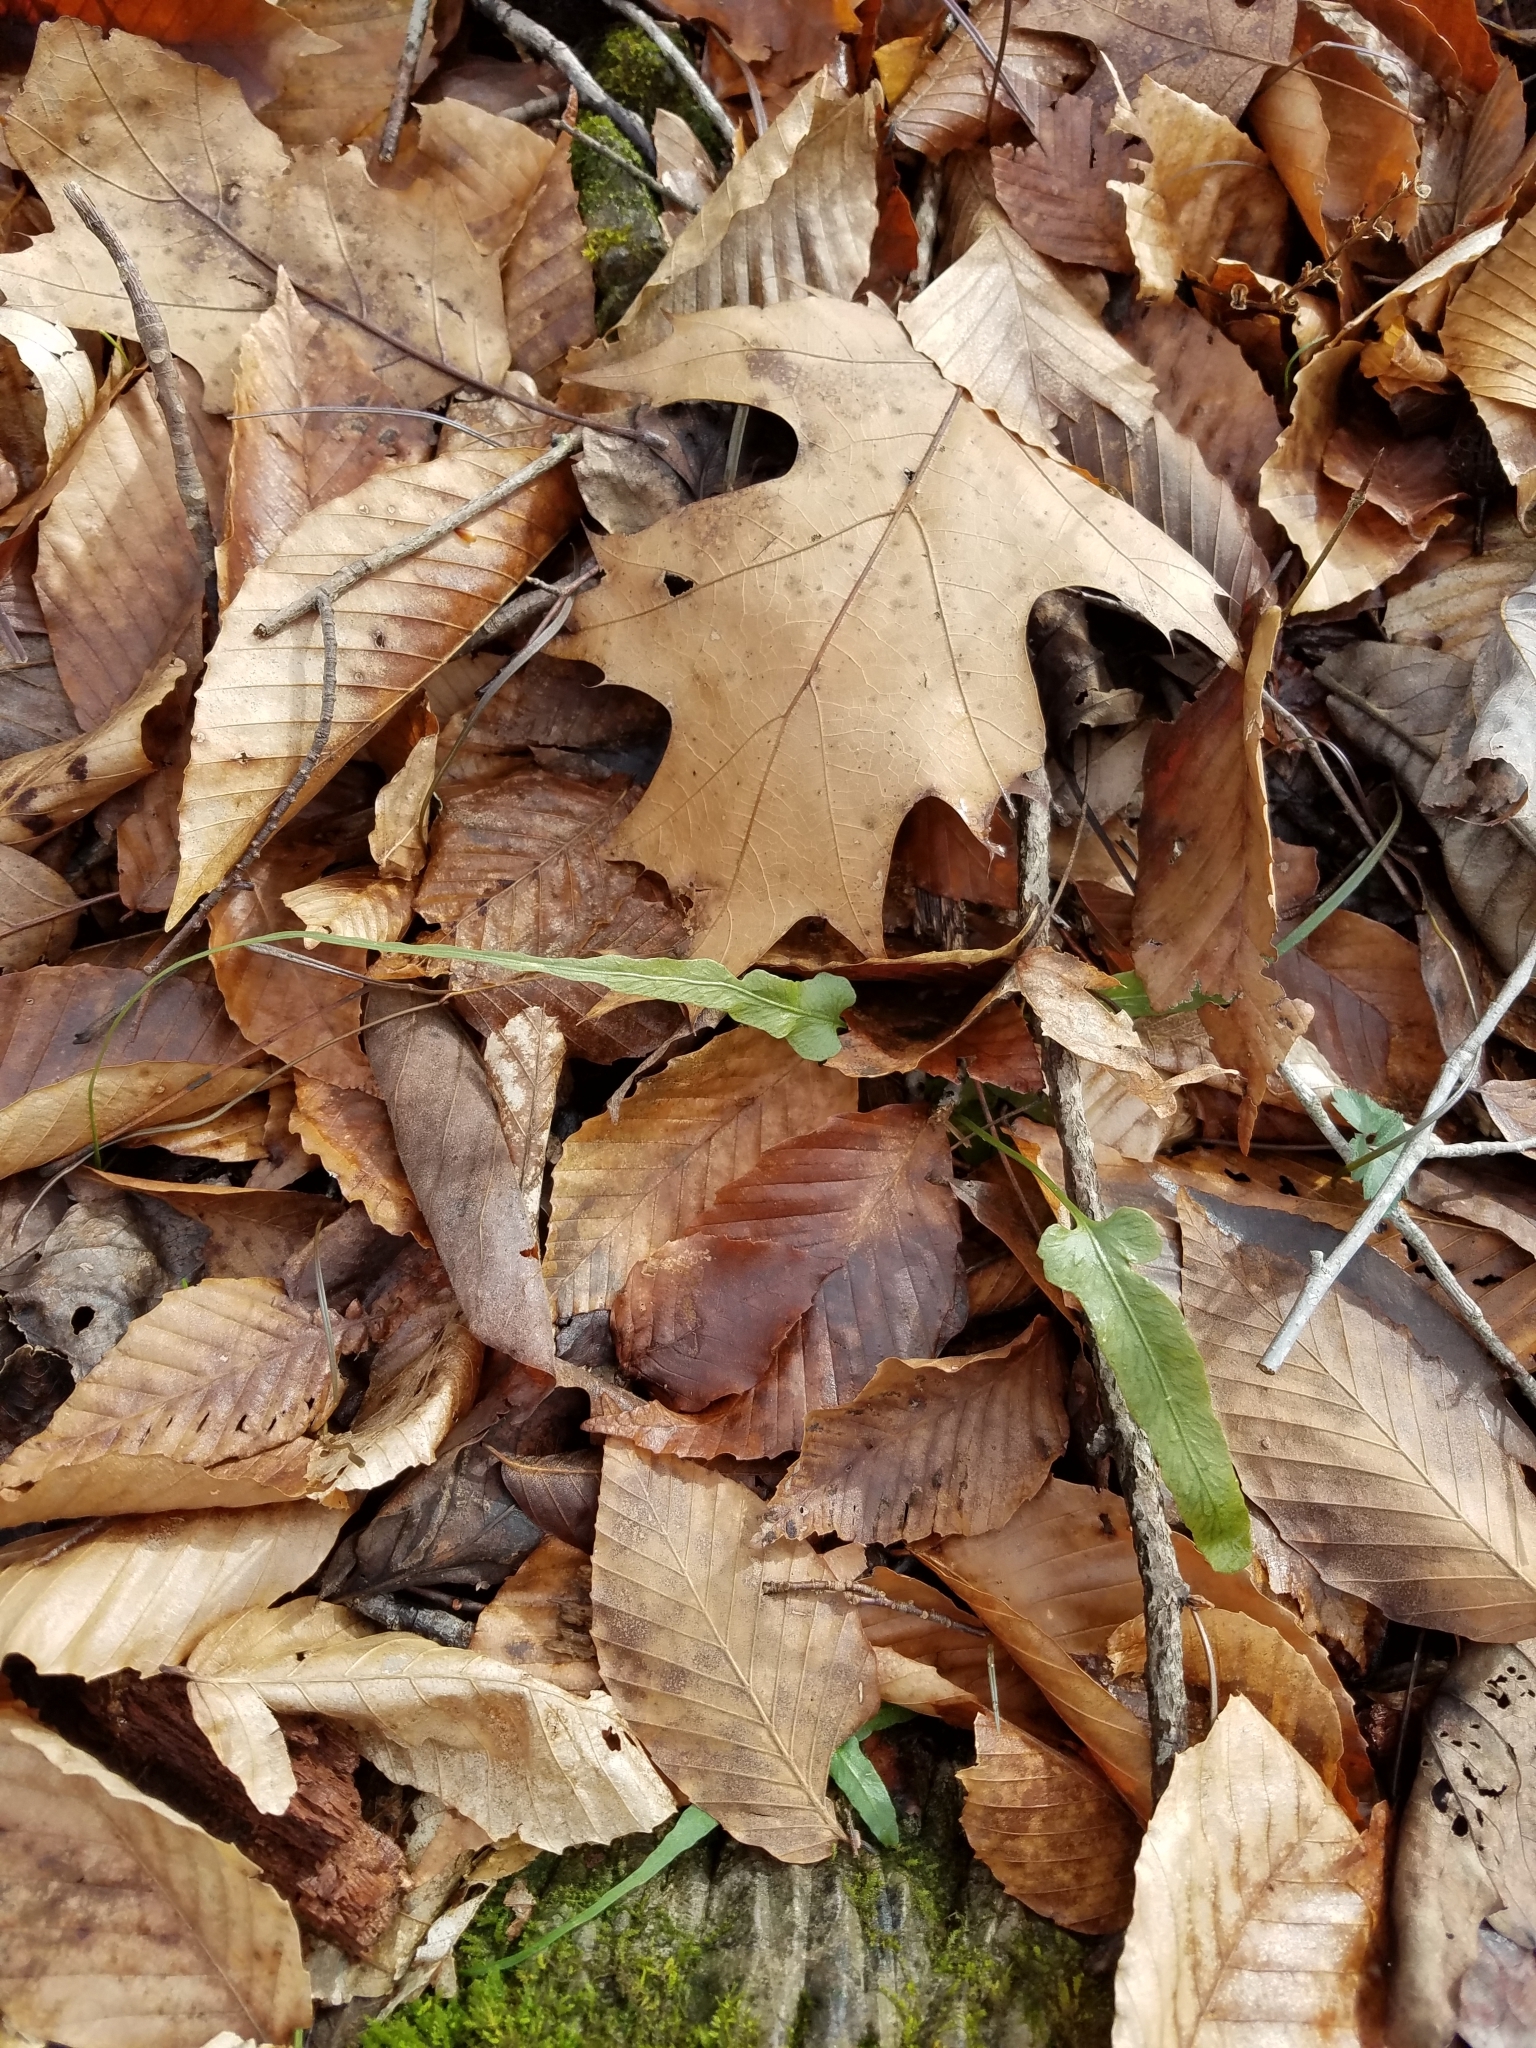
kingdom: Plantae
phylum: Tracheophyta
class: Polypodiopsida
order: Polypodiales
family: Aspleniaceae
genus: Asplenium
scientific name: Asplenium rhizophyllum
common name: Walking fern
